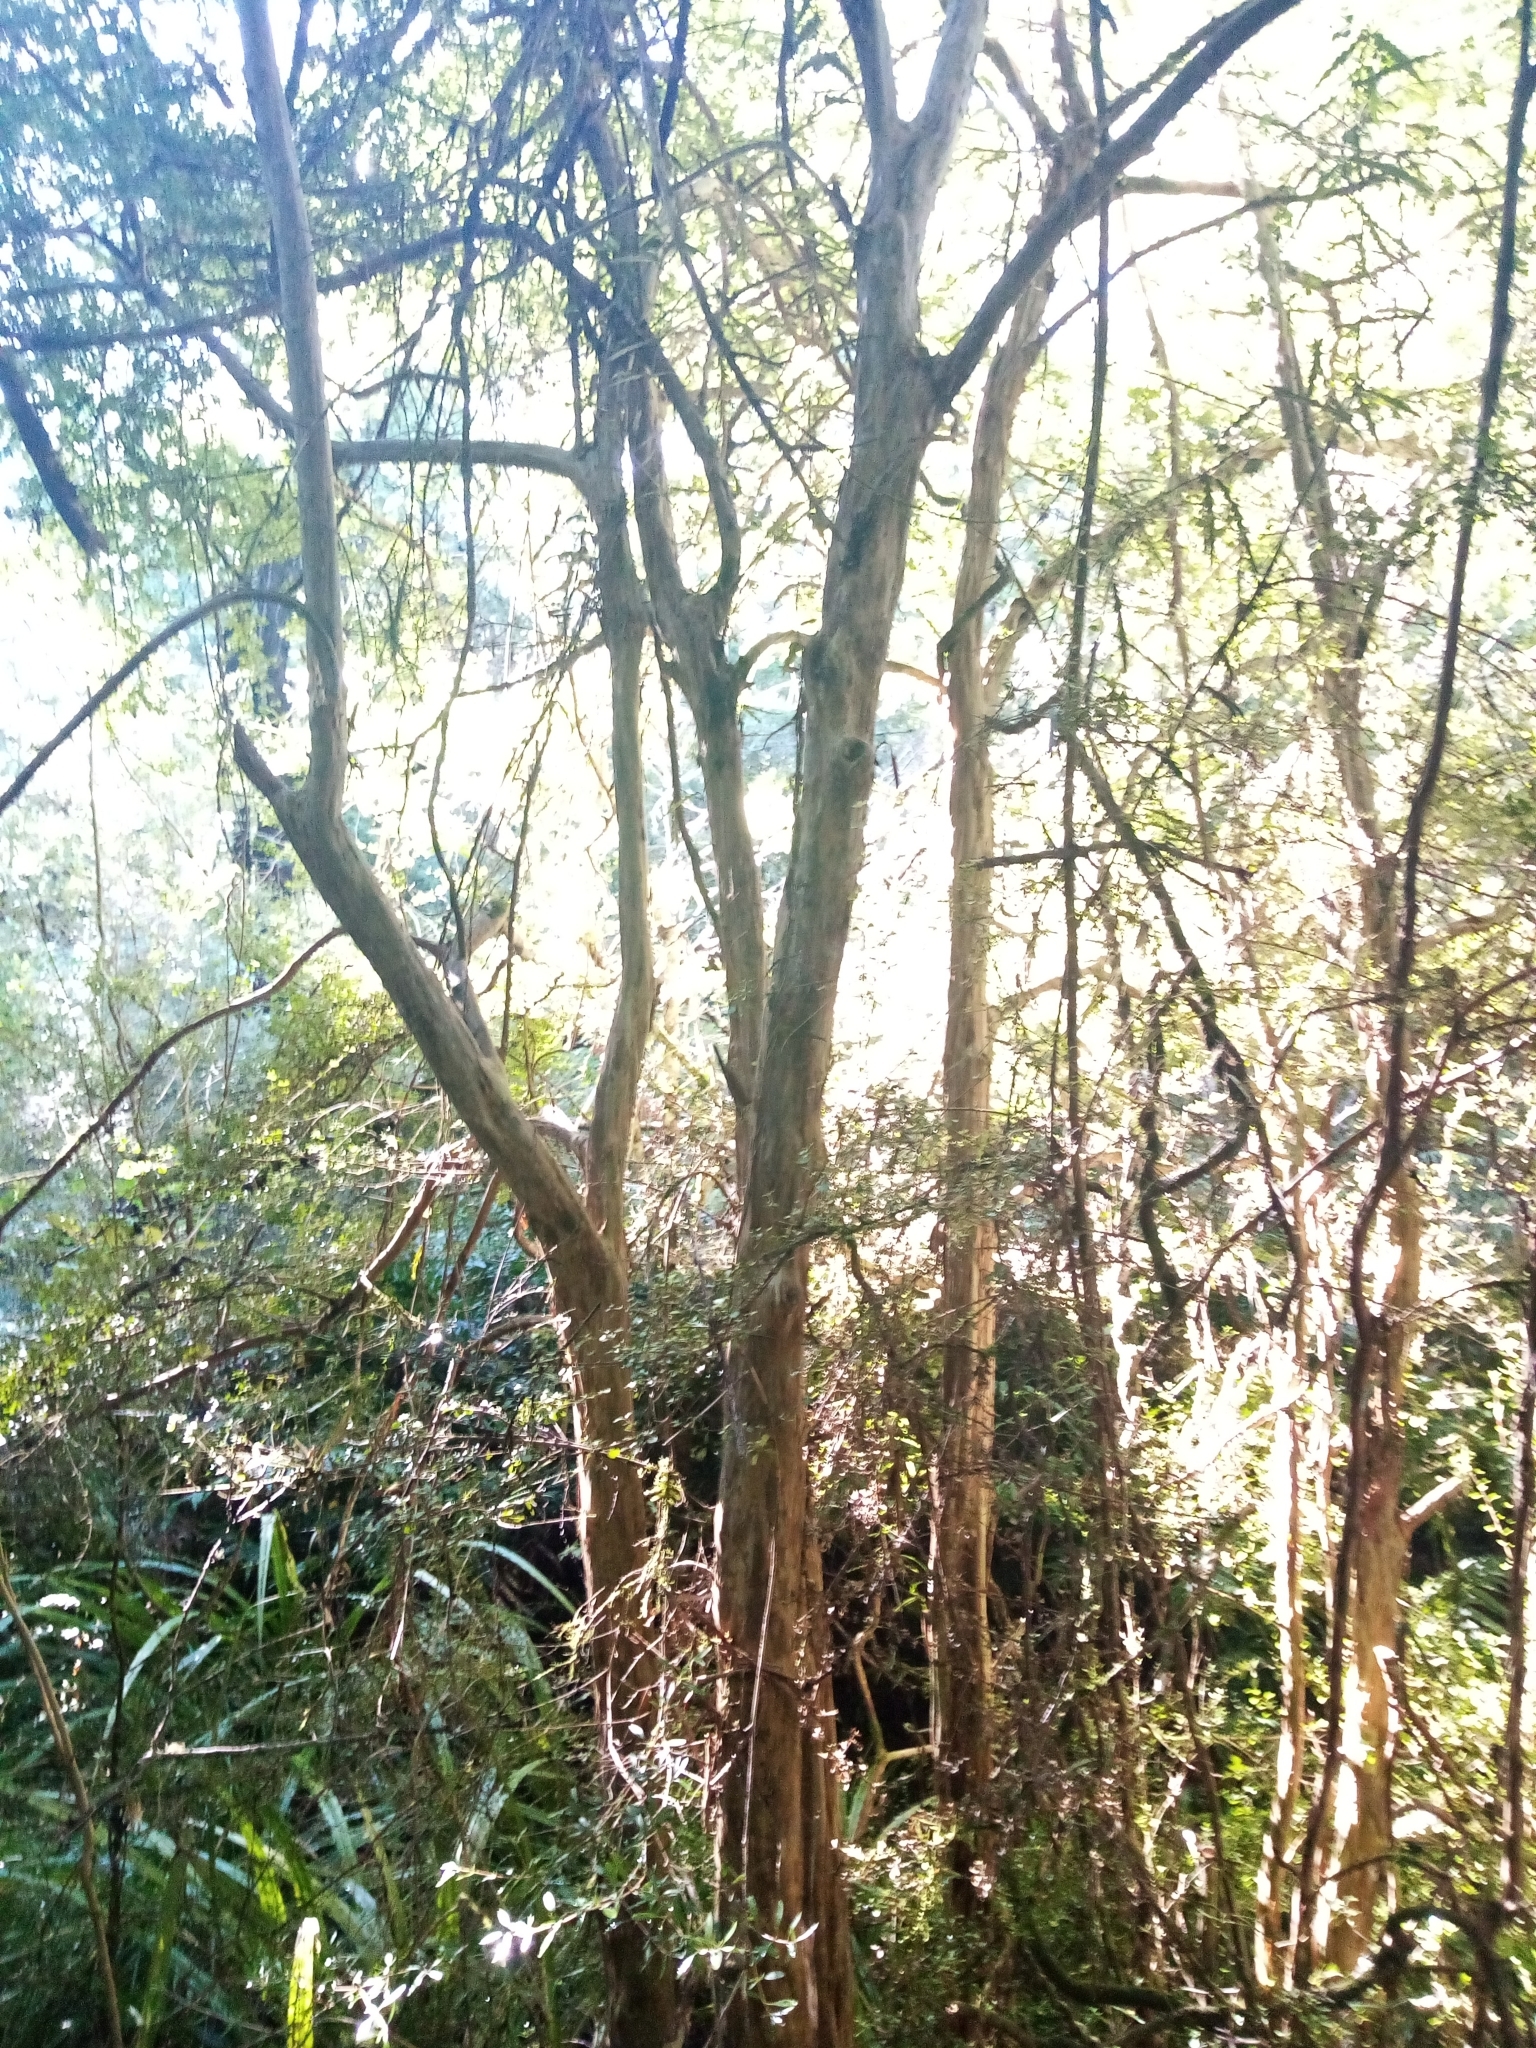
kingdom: Plantae
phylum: Tracheophyta
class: Magnoliopsida
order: Myrtales
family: Myrtaceae
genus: Lophomyrtus
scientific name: Lophomyrtus obcordata
